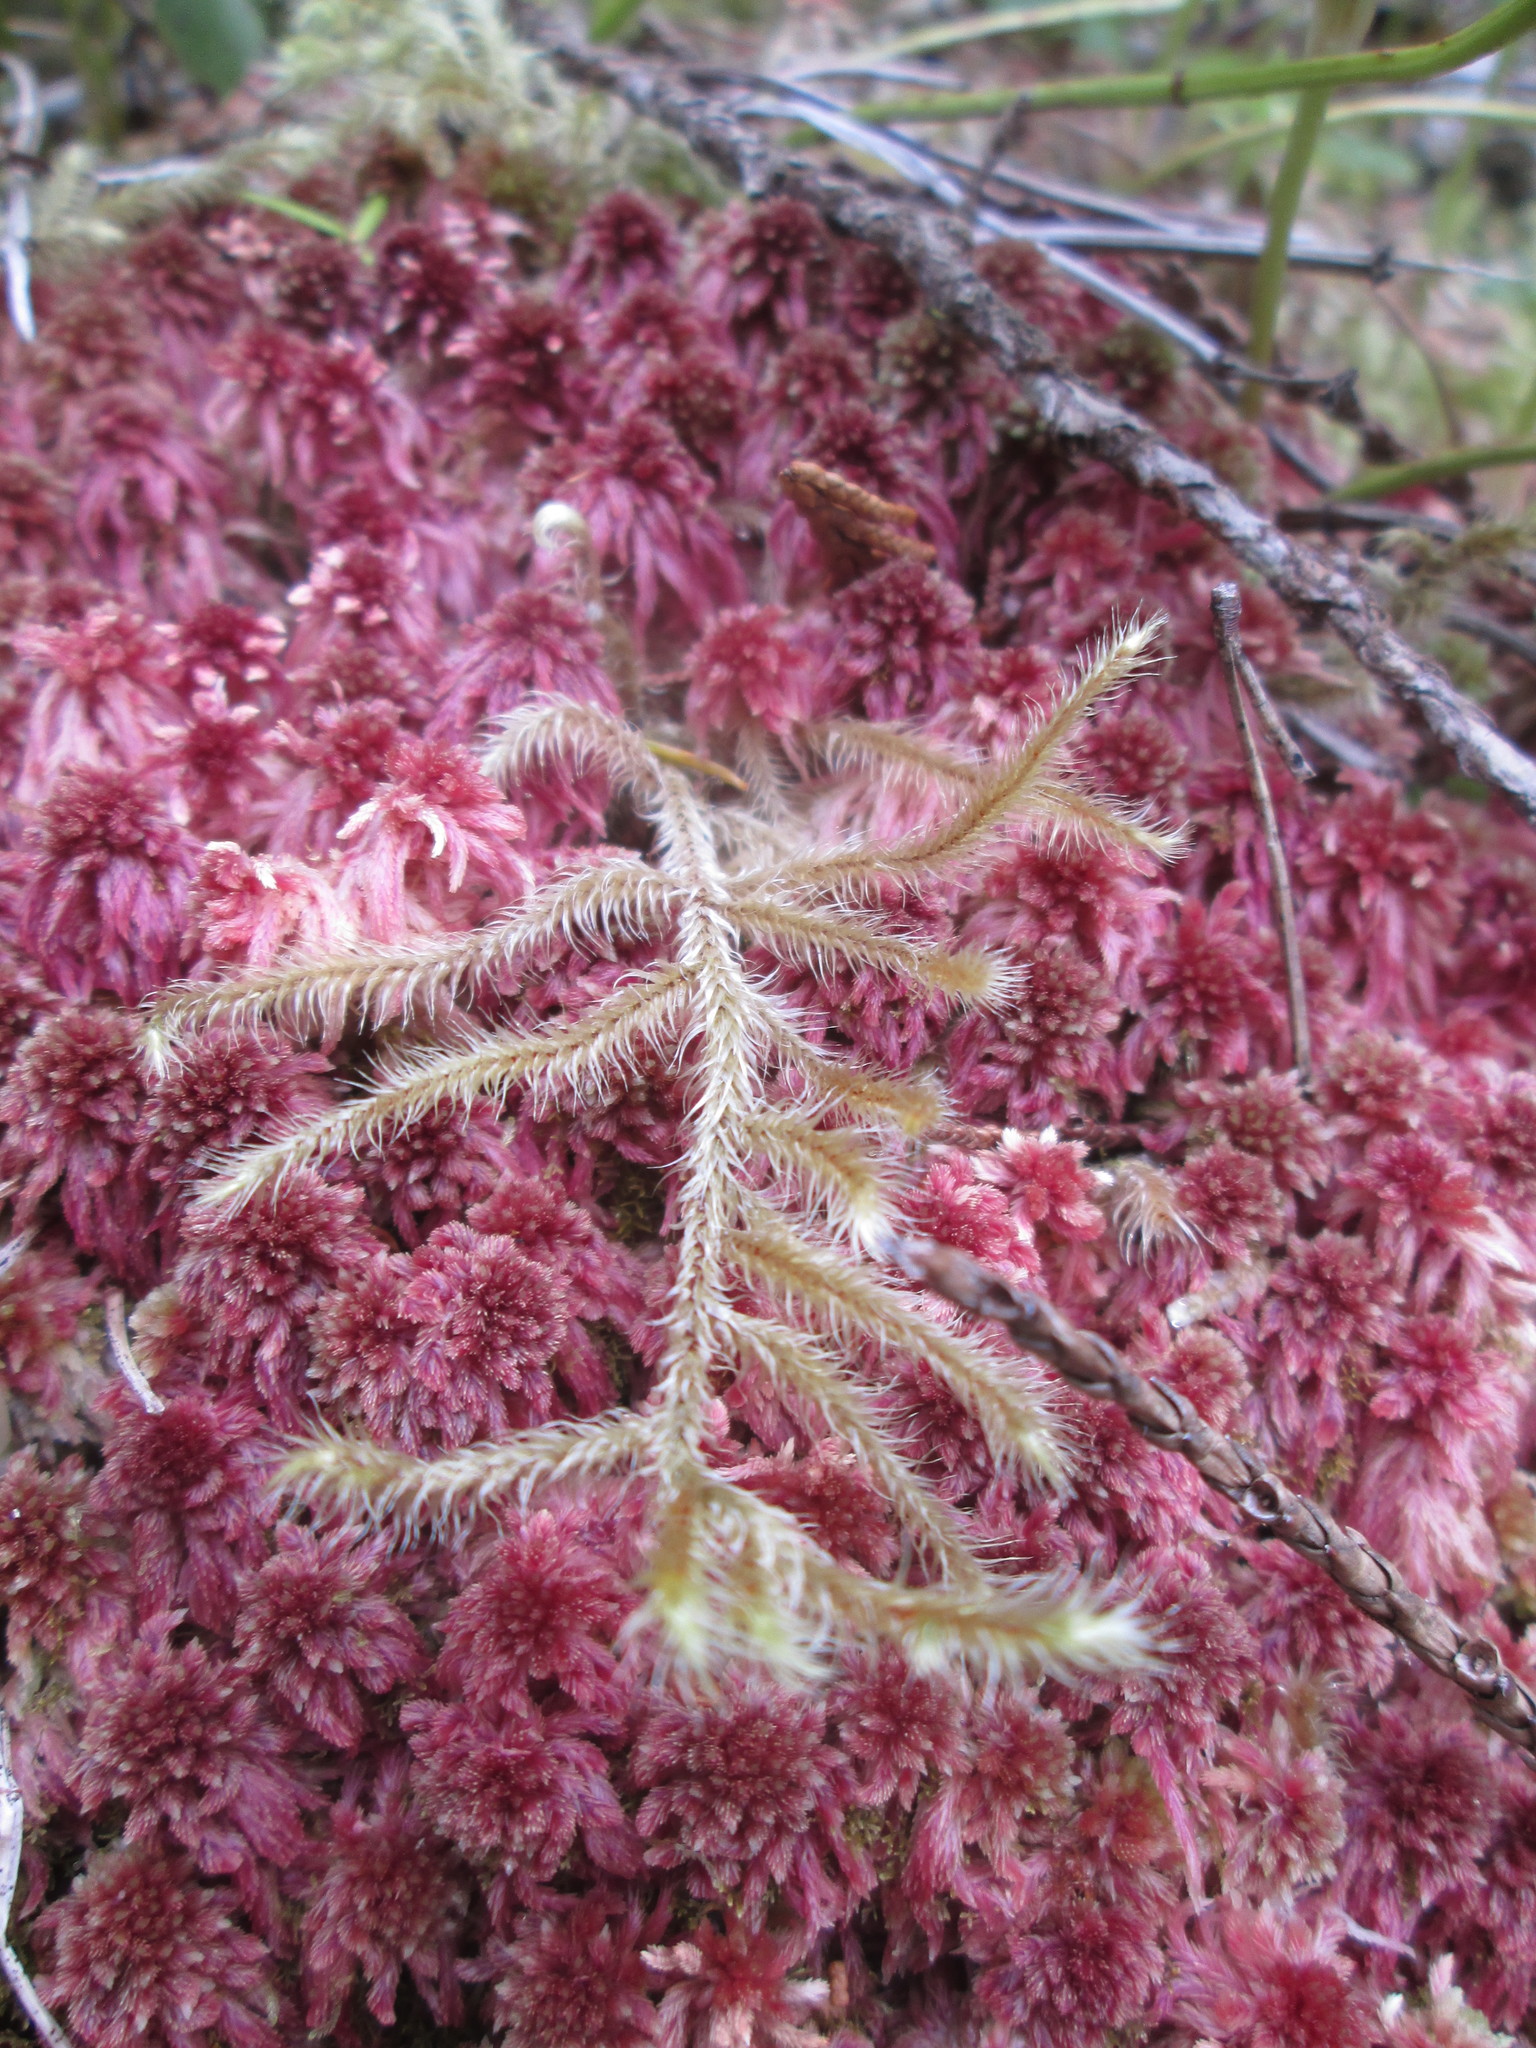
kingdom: Plantae
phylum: Bryophyta
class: Bryopsida
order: Hypnales
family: Hylocomiaceae
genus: Rhytidiadelphus
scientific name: Rhytidiadelphus loreus
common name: Lanky moss
